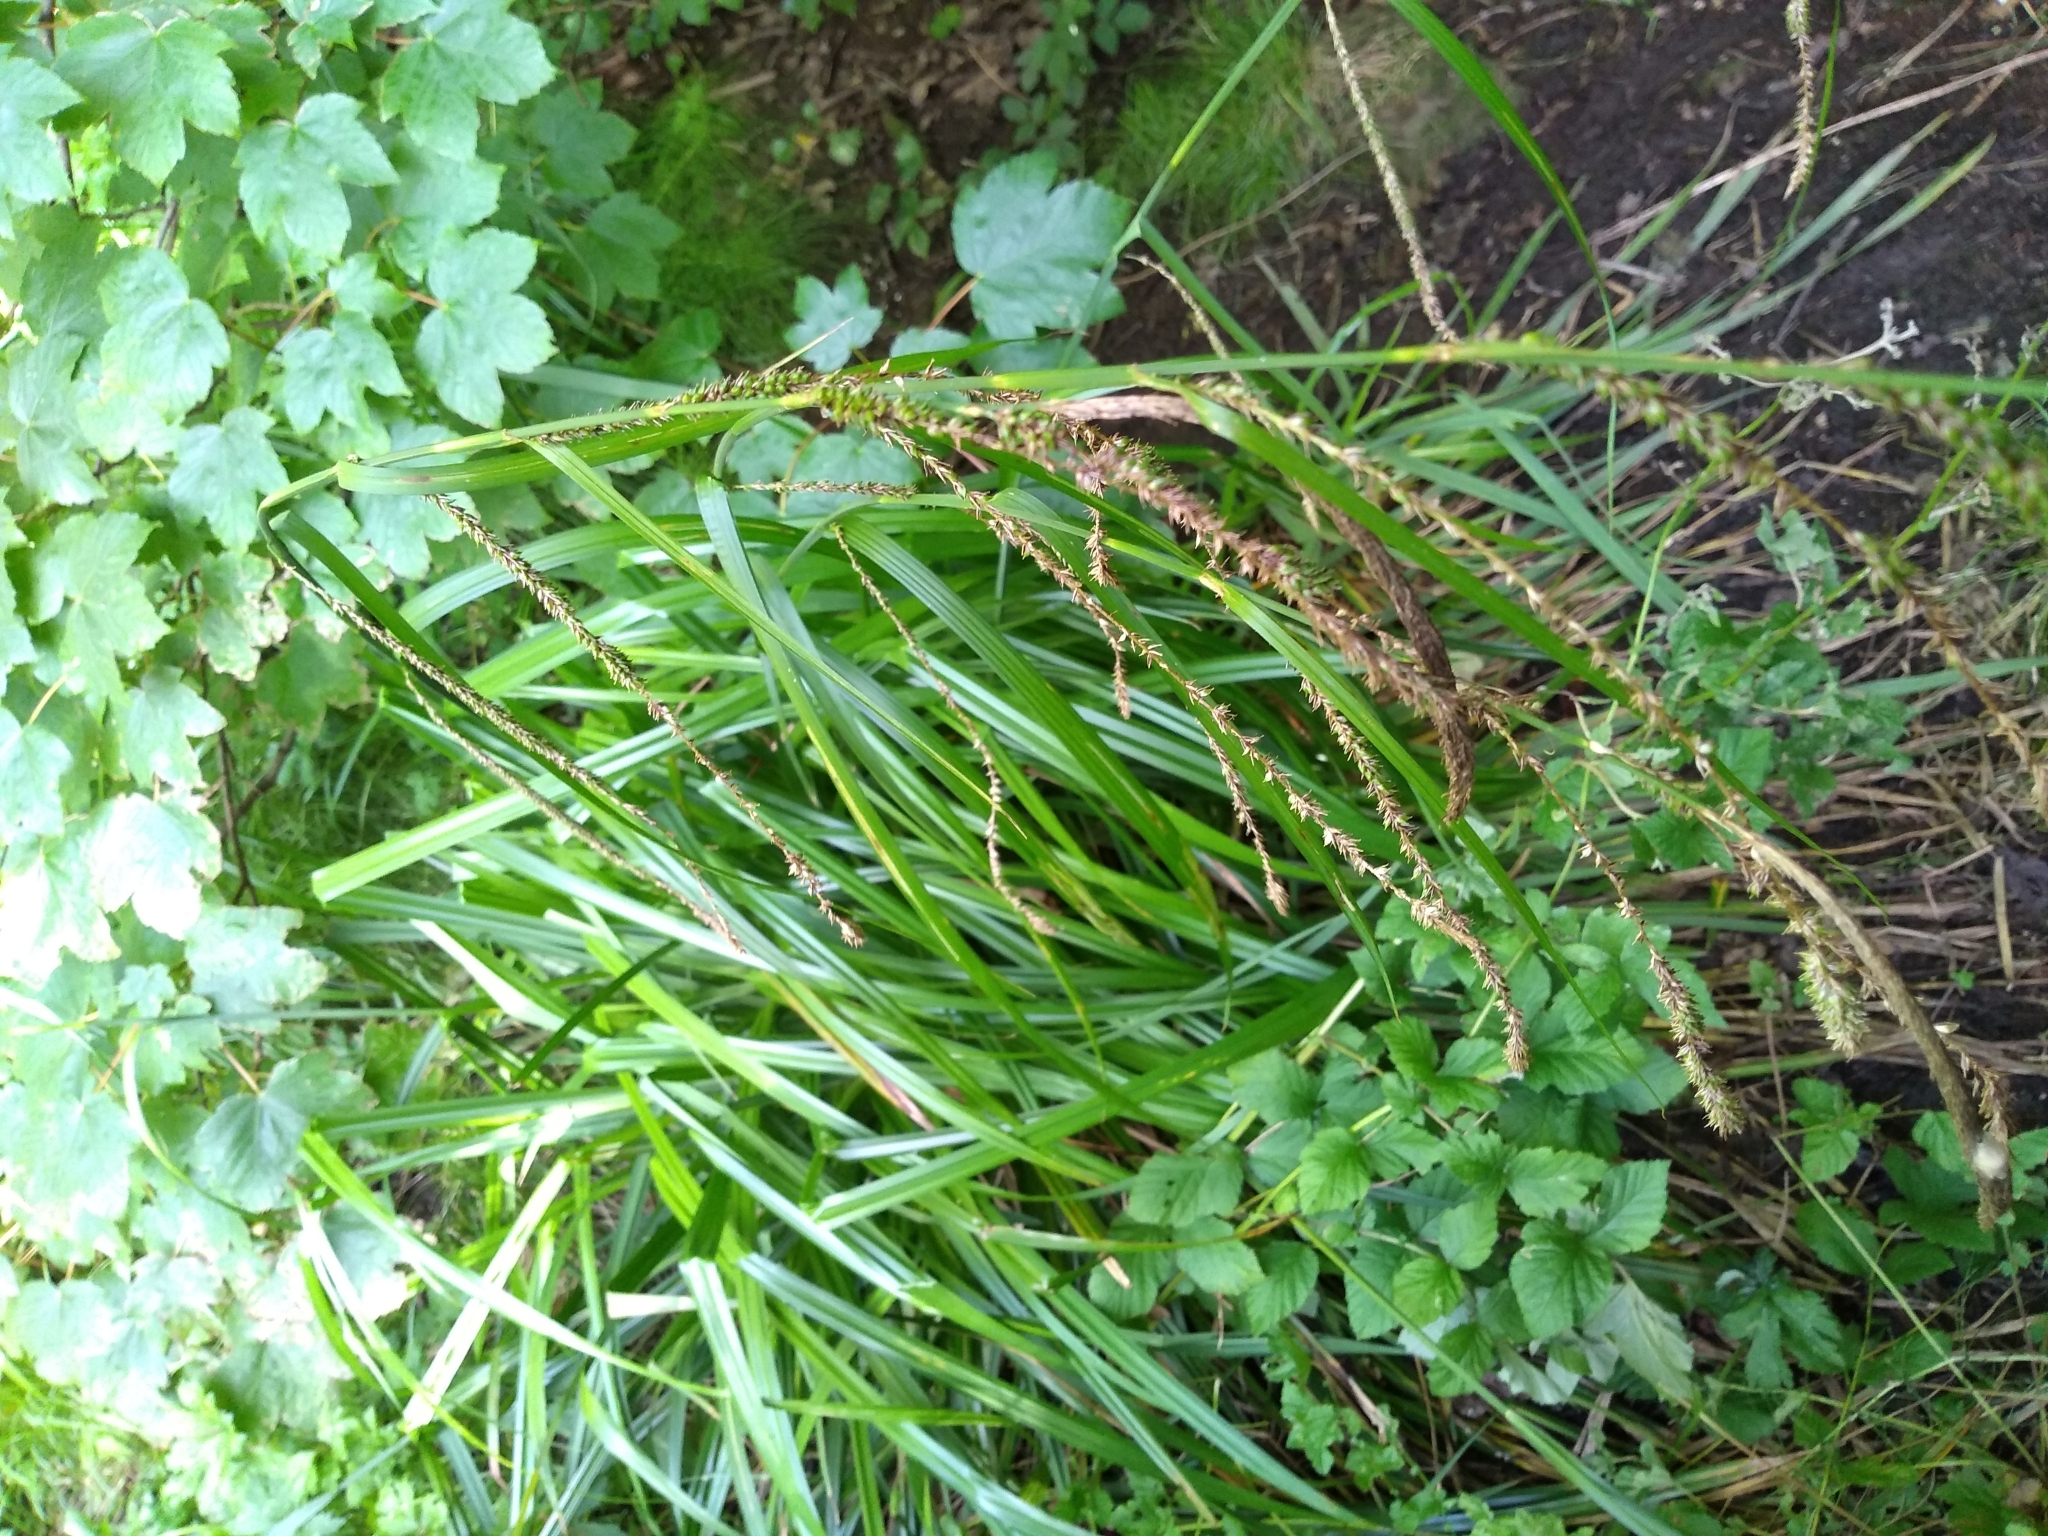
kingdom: Plantae
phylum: Tracheophyta
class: Liliopsida
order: Poales
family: Cyperaceae
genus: Carex
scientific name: Carex pendula
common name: Pendulous sedge
